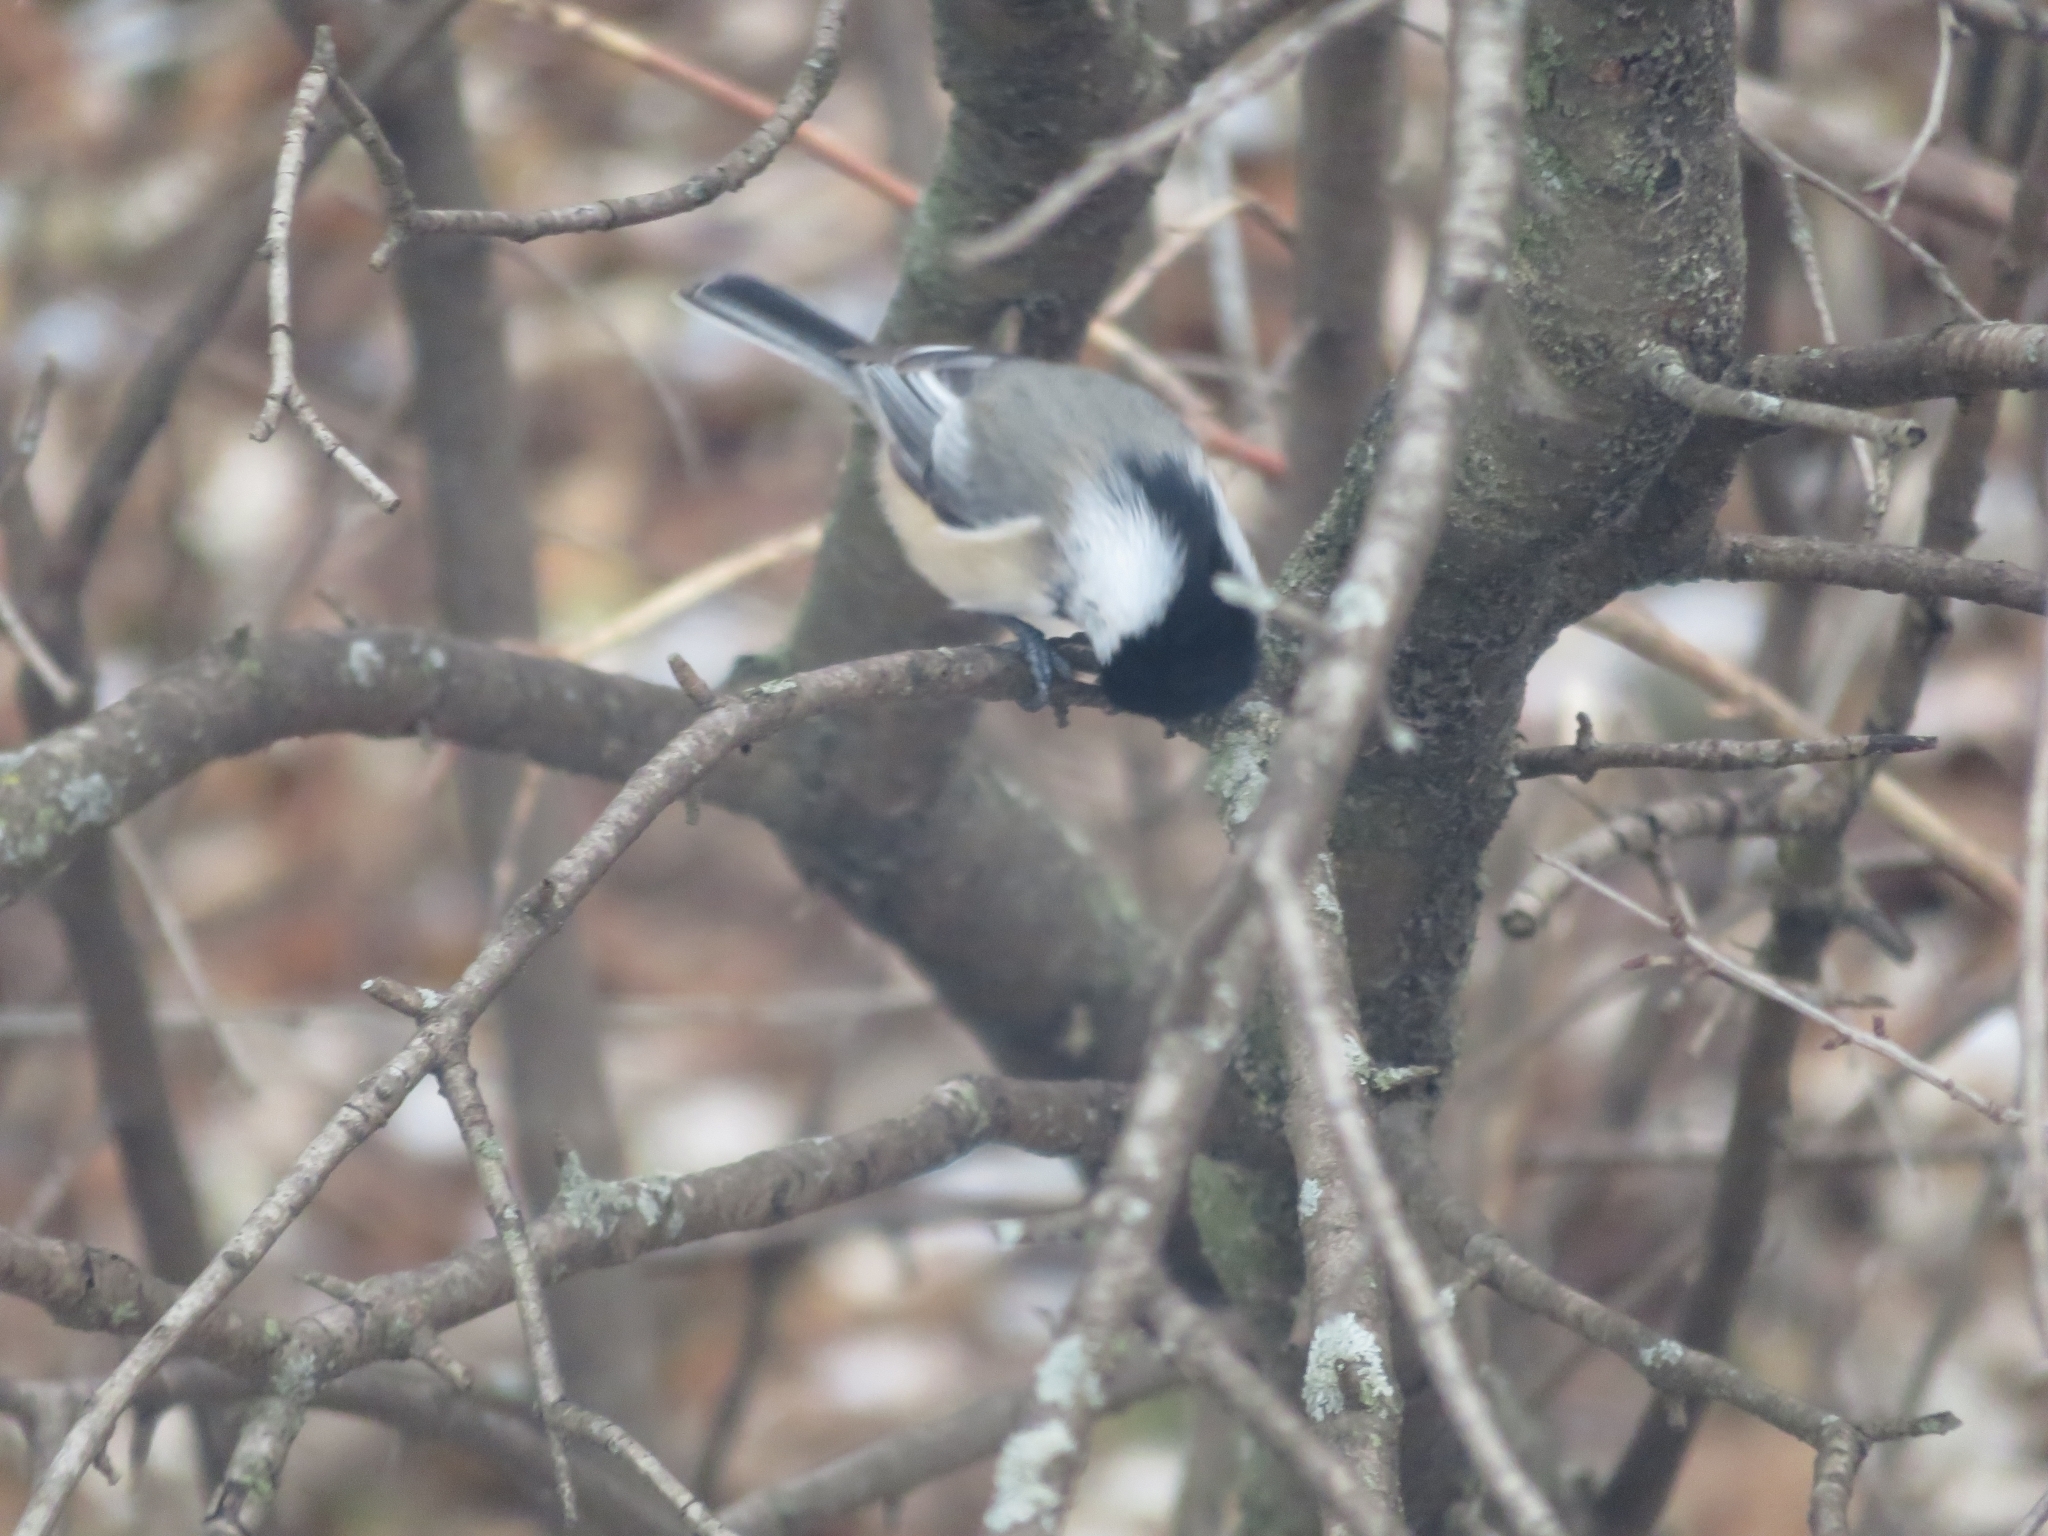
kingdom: Animalia
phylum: Chordata
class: Aves
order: Passeriformes
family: Paridae
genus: Poecile
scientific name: Poecile atricapillus
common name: Black-capped chickadee
